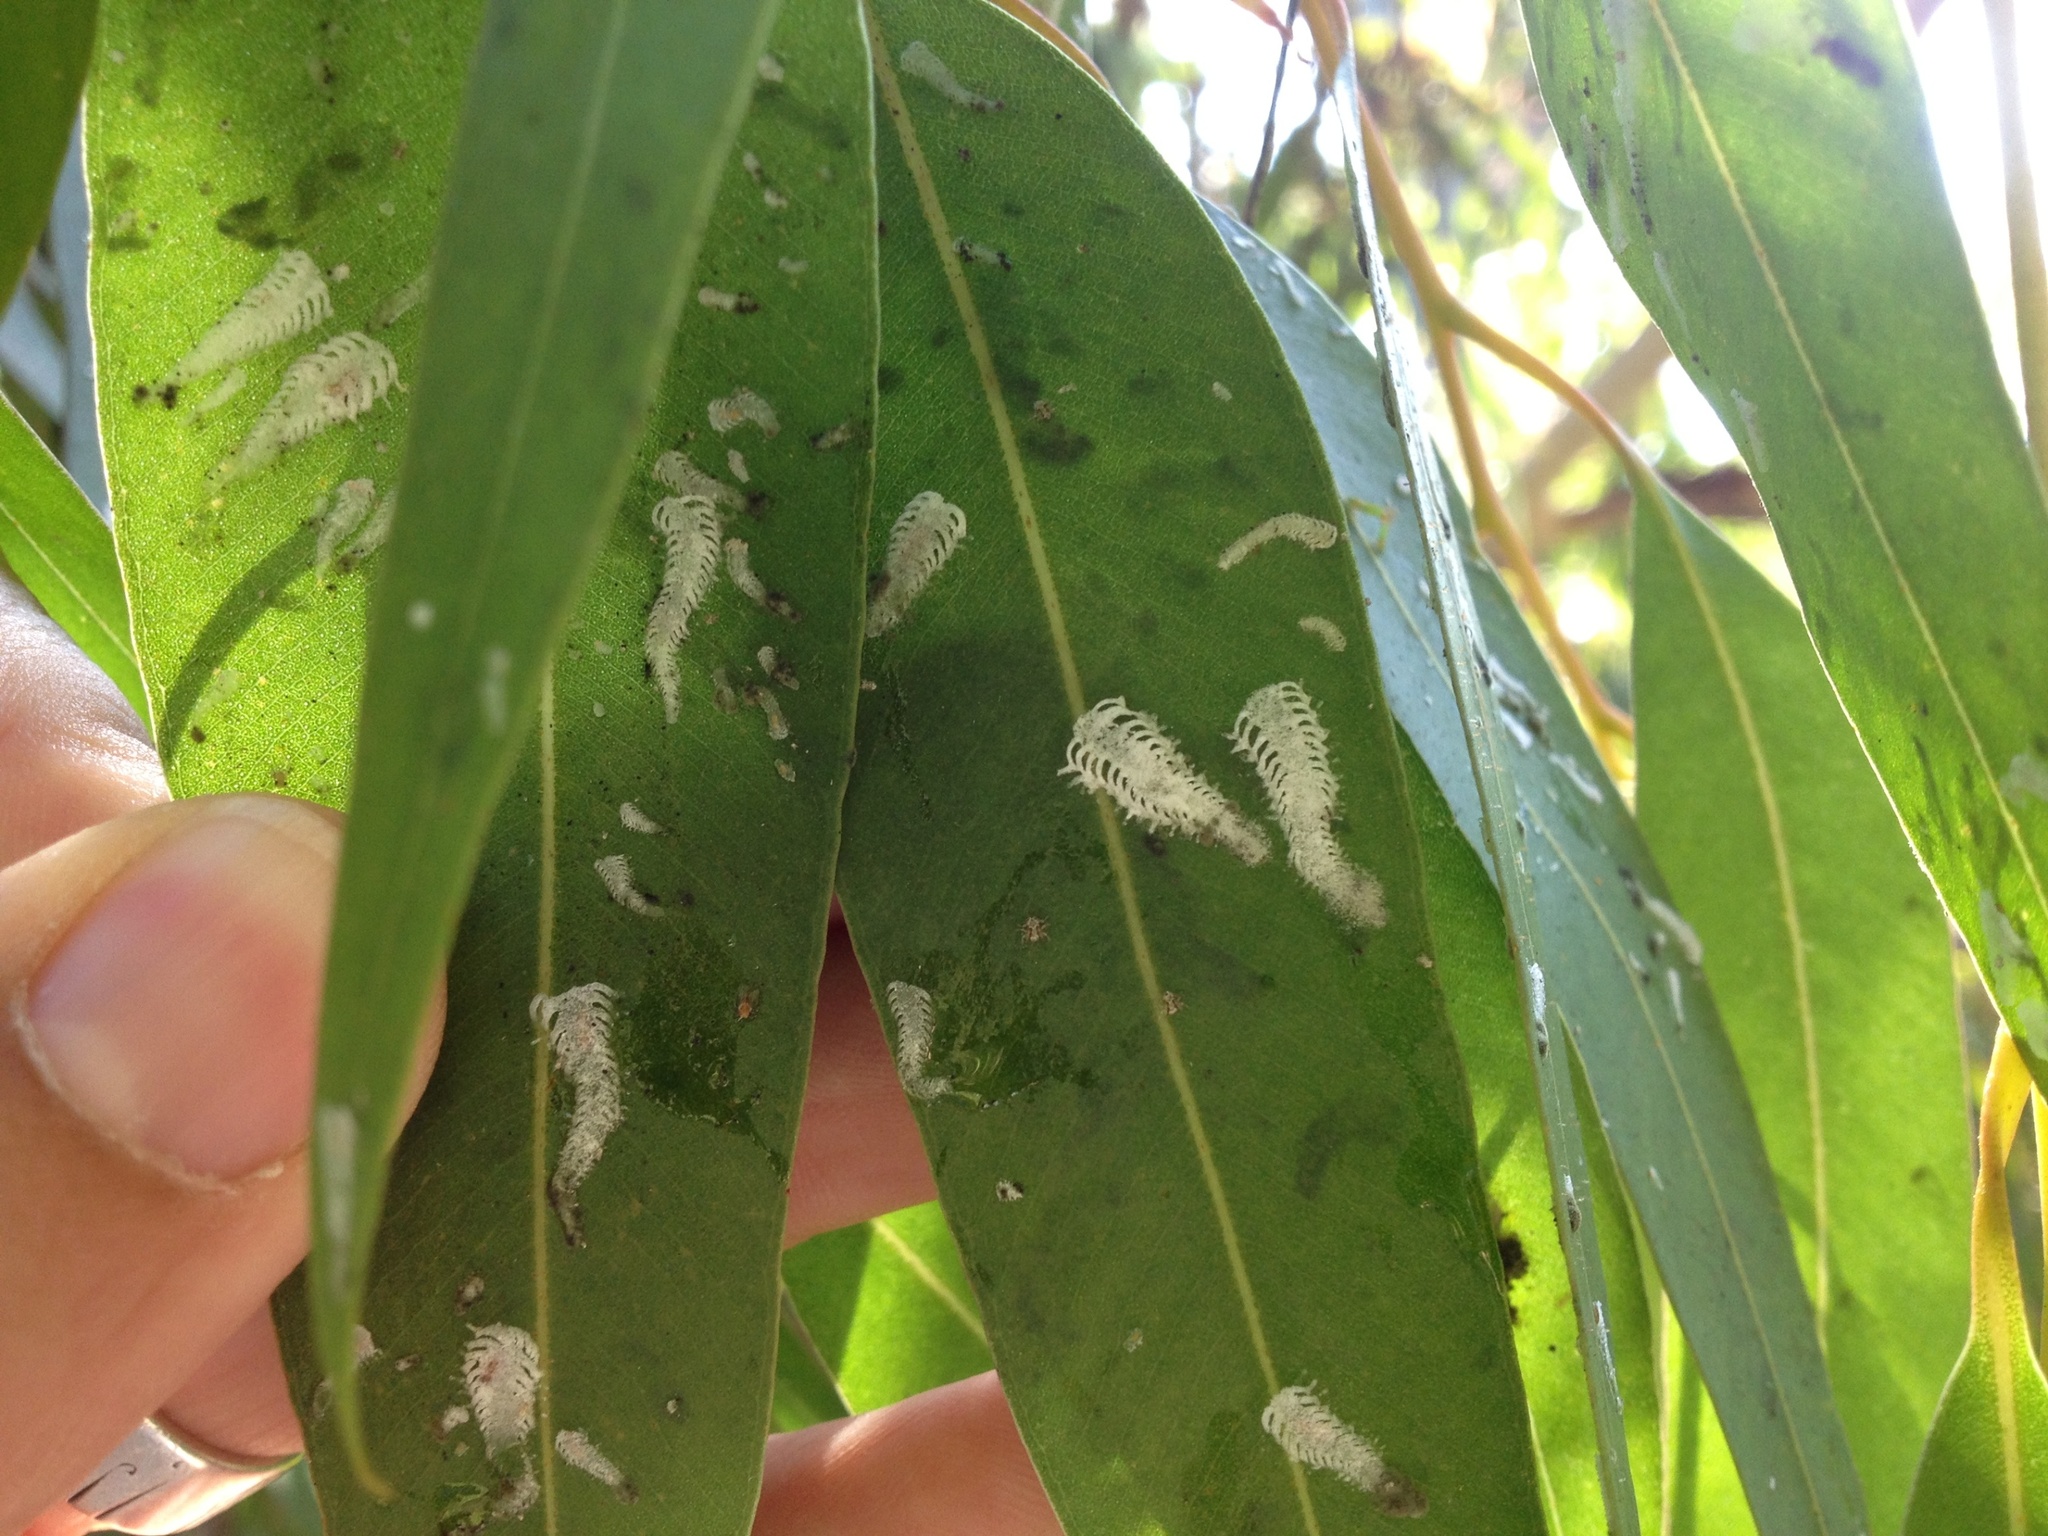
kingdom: Animalia
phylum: Arthropoda
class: Insecta
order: Hemiptera
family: Aphalaridae
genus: Eucalyptolyma
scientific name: Eucalyptolyma maideni
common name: Spotted gum lerp psyllid
